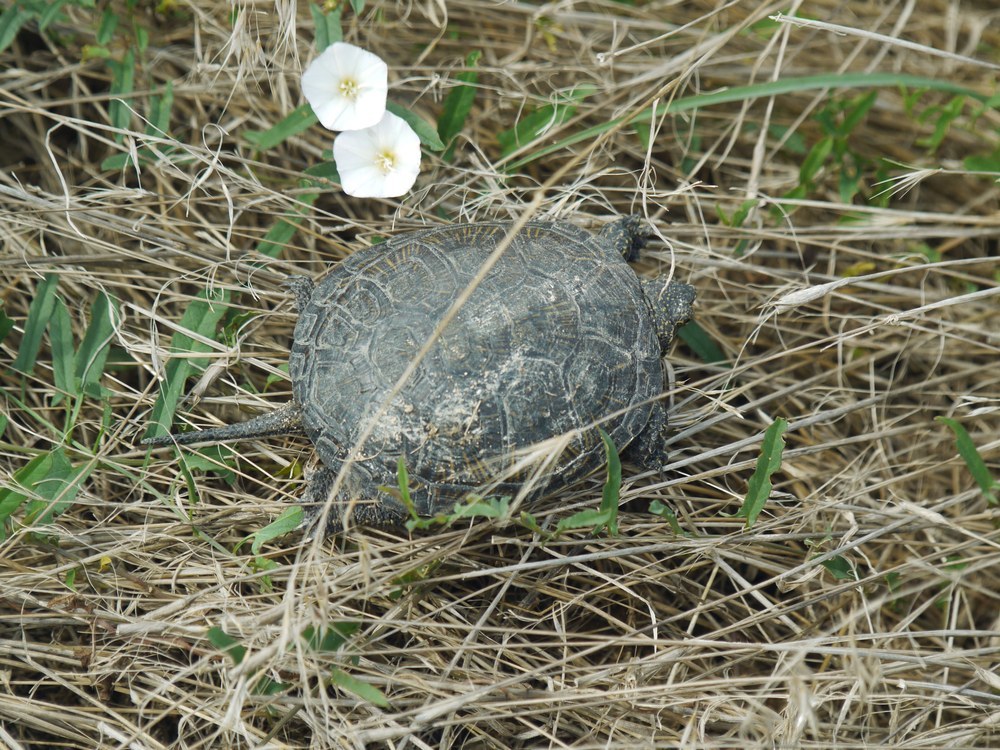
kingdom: Animalia
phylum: Chordata
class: Testudines
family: Emydidae
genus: Emys
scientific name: Emys orbicularis
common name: European pond turtle
